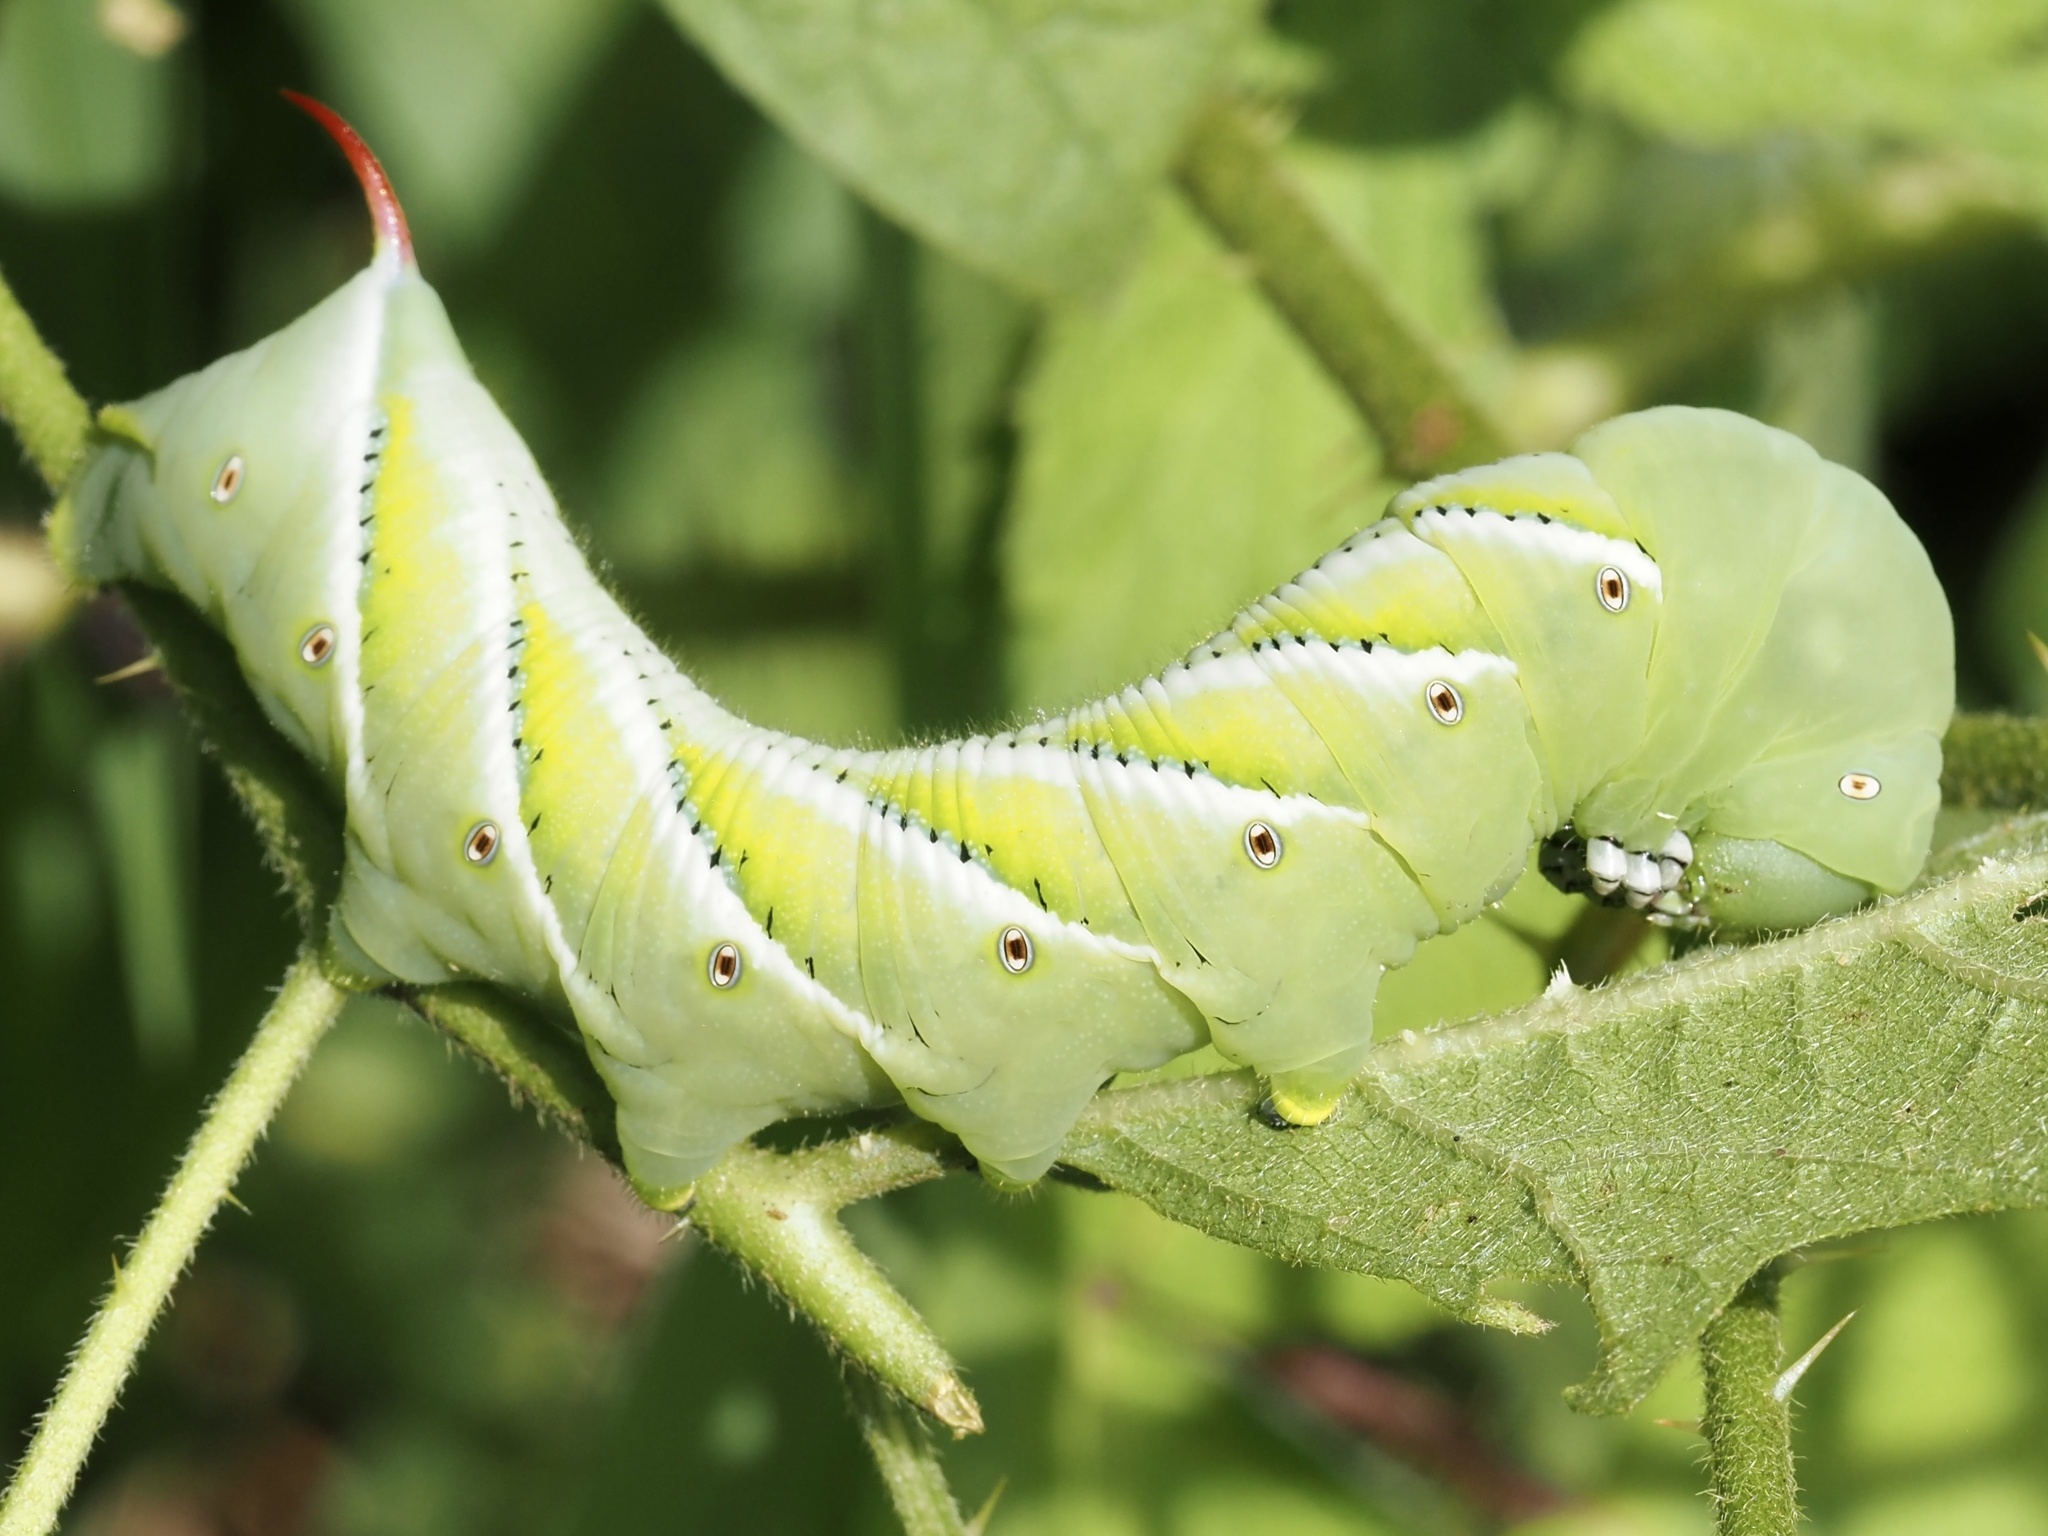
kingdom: Animalia
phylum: Arthropoda
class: Insecta
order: Lepidoptera
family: Sphingidae
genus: Manduca
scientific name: Manduca sexta
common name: Carolina sphinx
